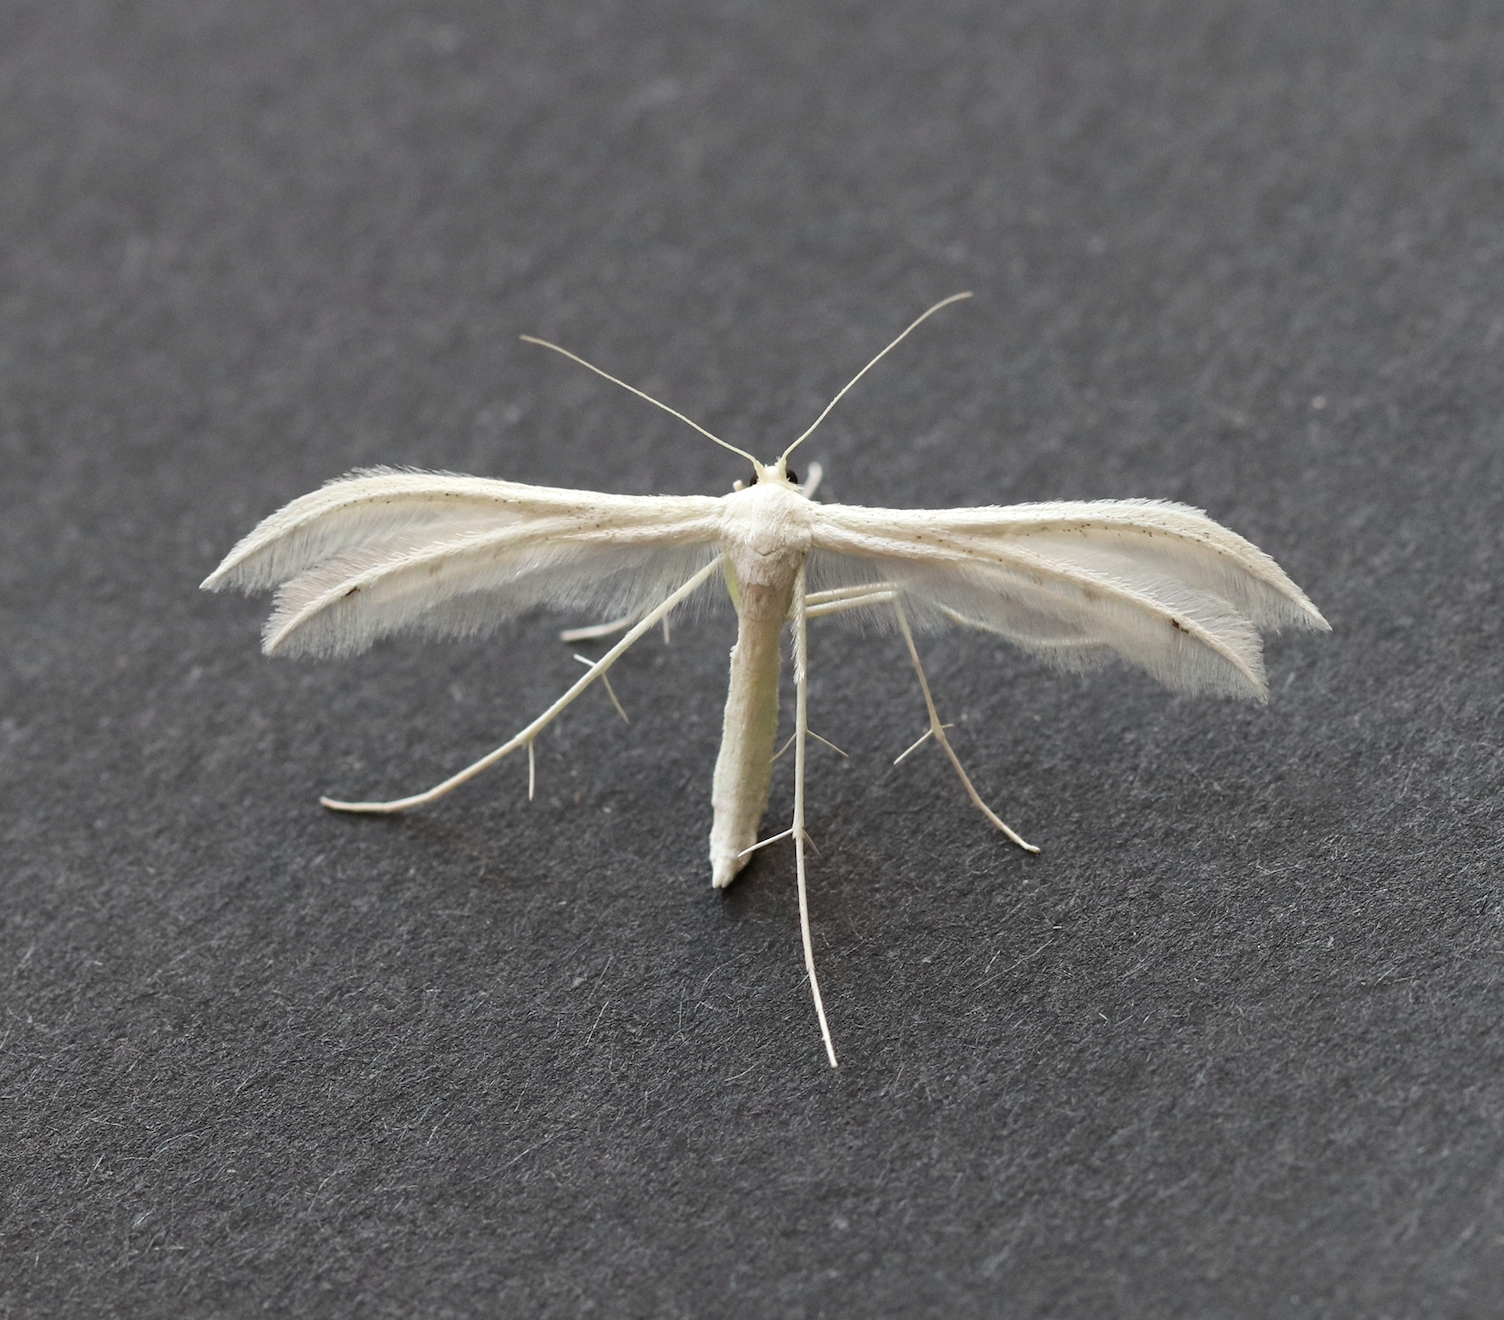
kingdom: Animalia
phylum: Arthropoda
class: Insecta
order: Lepidoptera
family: Pterophoridae
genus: Pterophorus
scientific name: Pterophorus pentadactyla
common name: White plume moth
